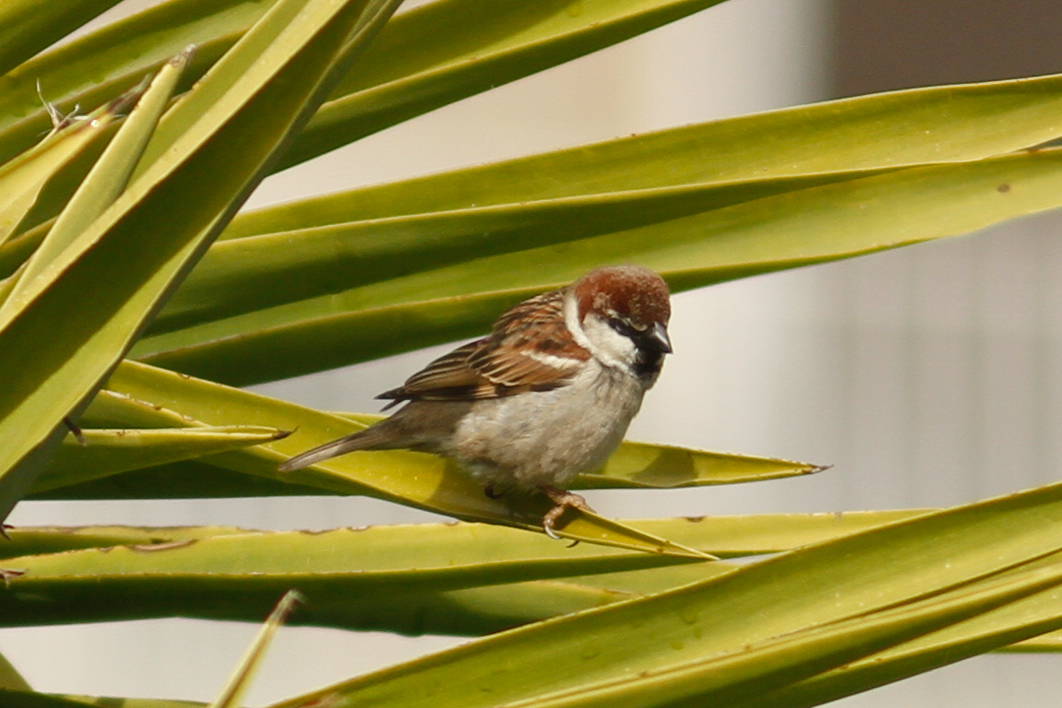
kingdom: Animalia
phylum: Chordata
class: Aves
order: Passeriformes
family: Passeridae
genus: Passer
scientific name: Passer italiae
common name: Italian sparrow
